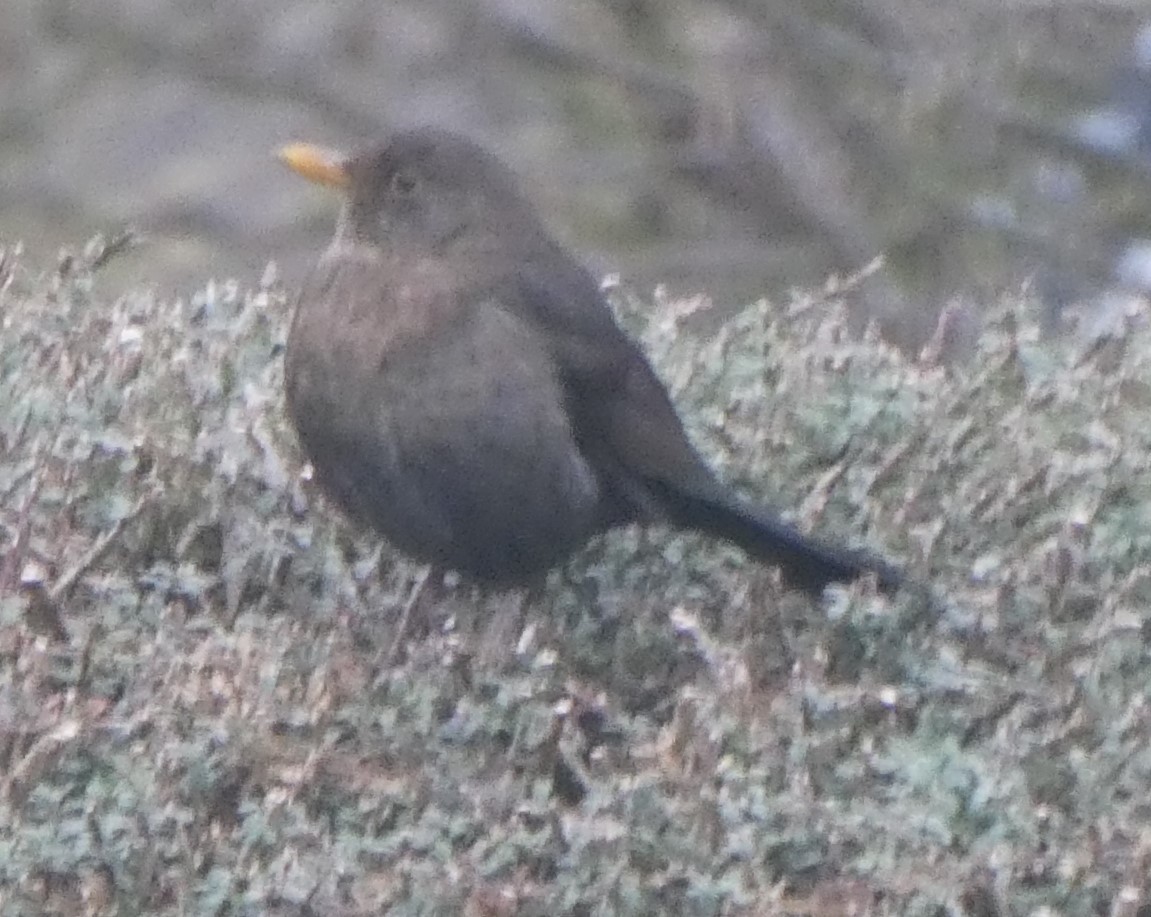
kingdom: Animalia
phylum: Chordata
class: Aves
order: Passeriformes
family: Turdidae
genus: Turdus
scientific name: Turdus merula
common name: Common blackbird
